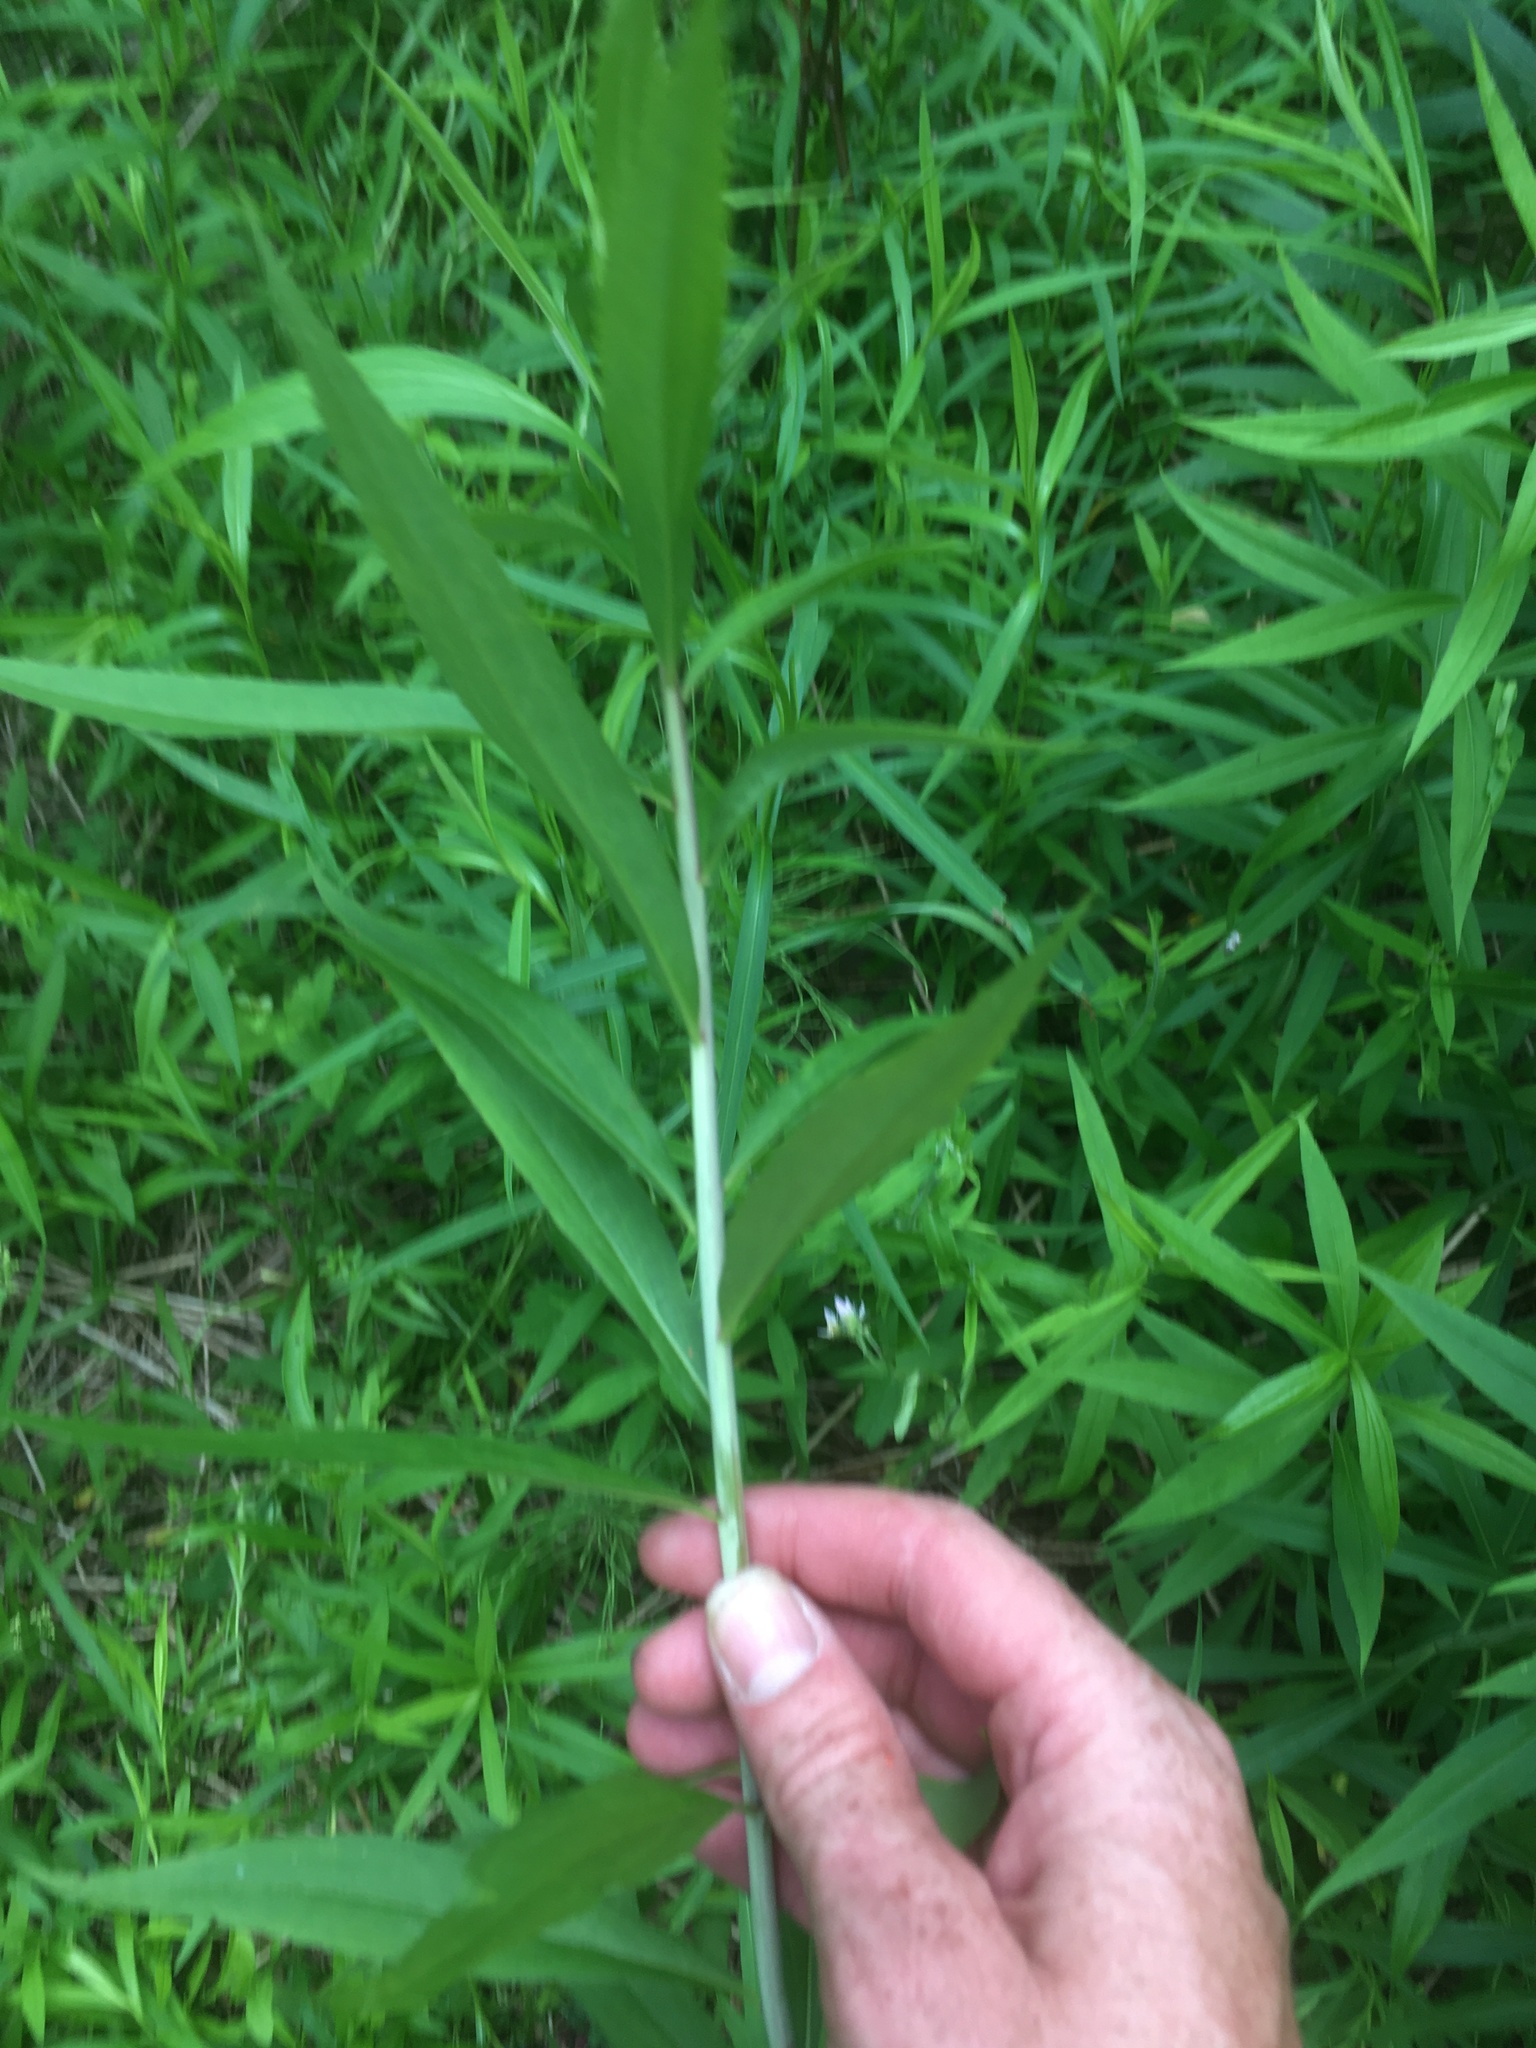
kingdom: Plantae
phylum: Tracheophyta
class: Magnoliopsida
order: Asterales
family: Asteraceae
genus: Solidago
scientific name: Solidago gigantea
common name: Giant goldenrod
